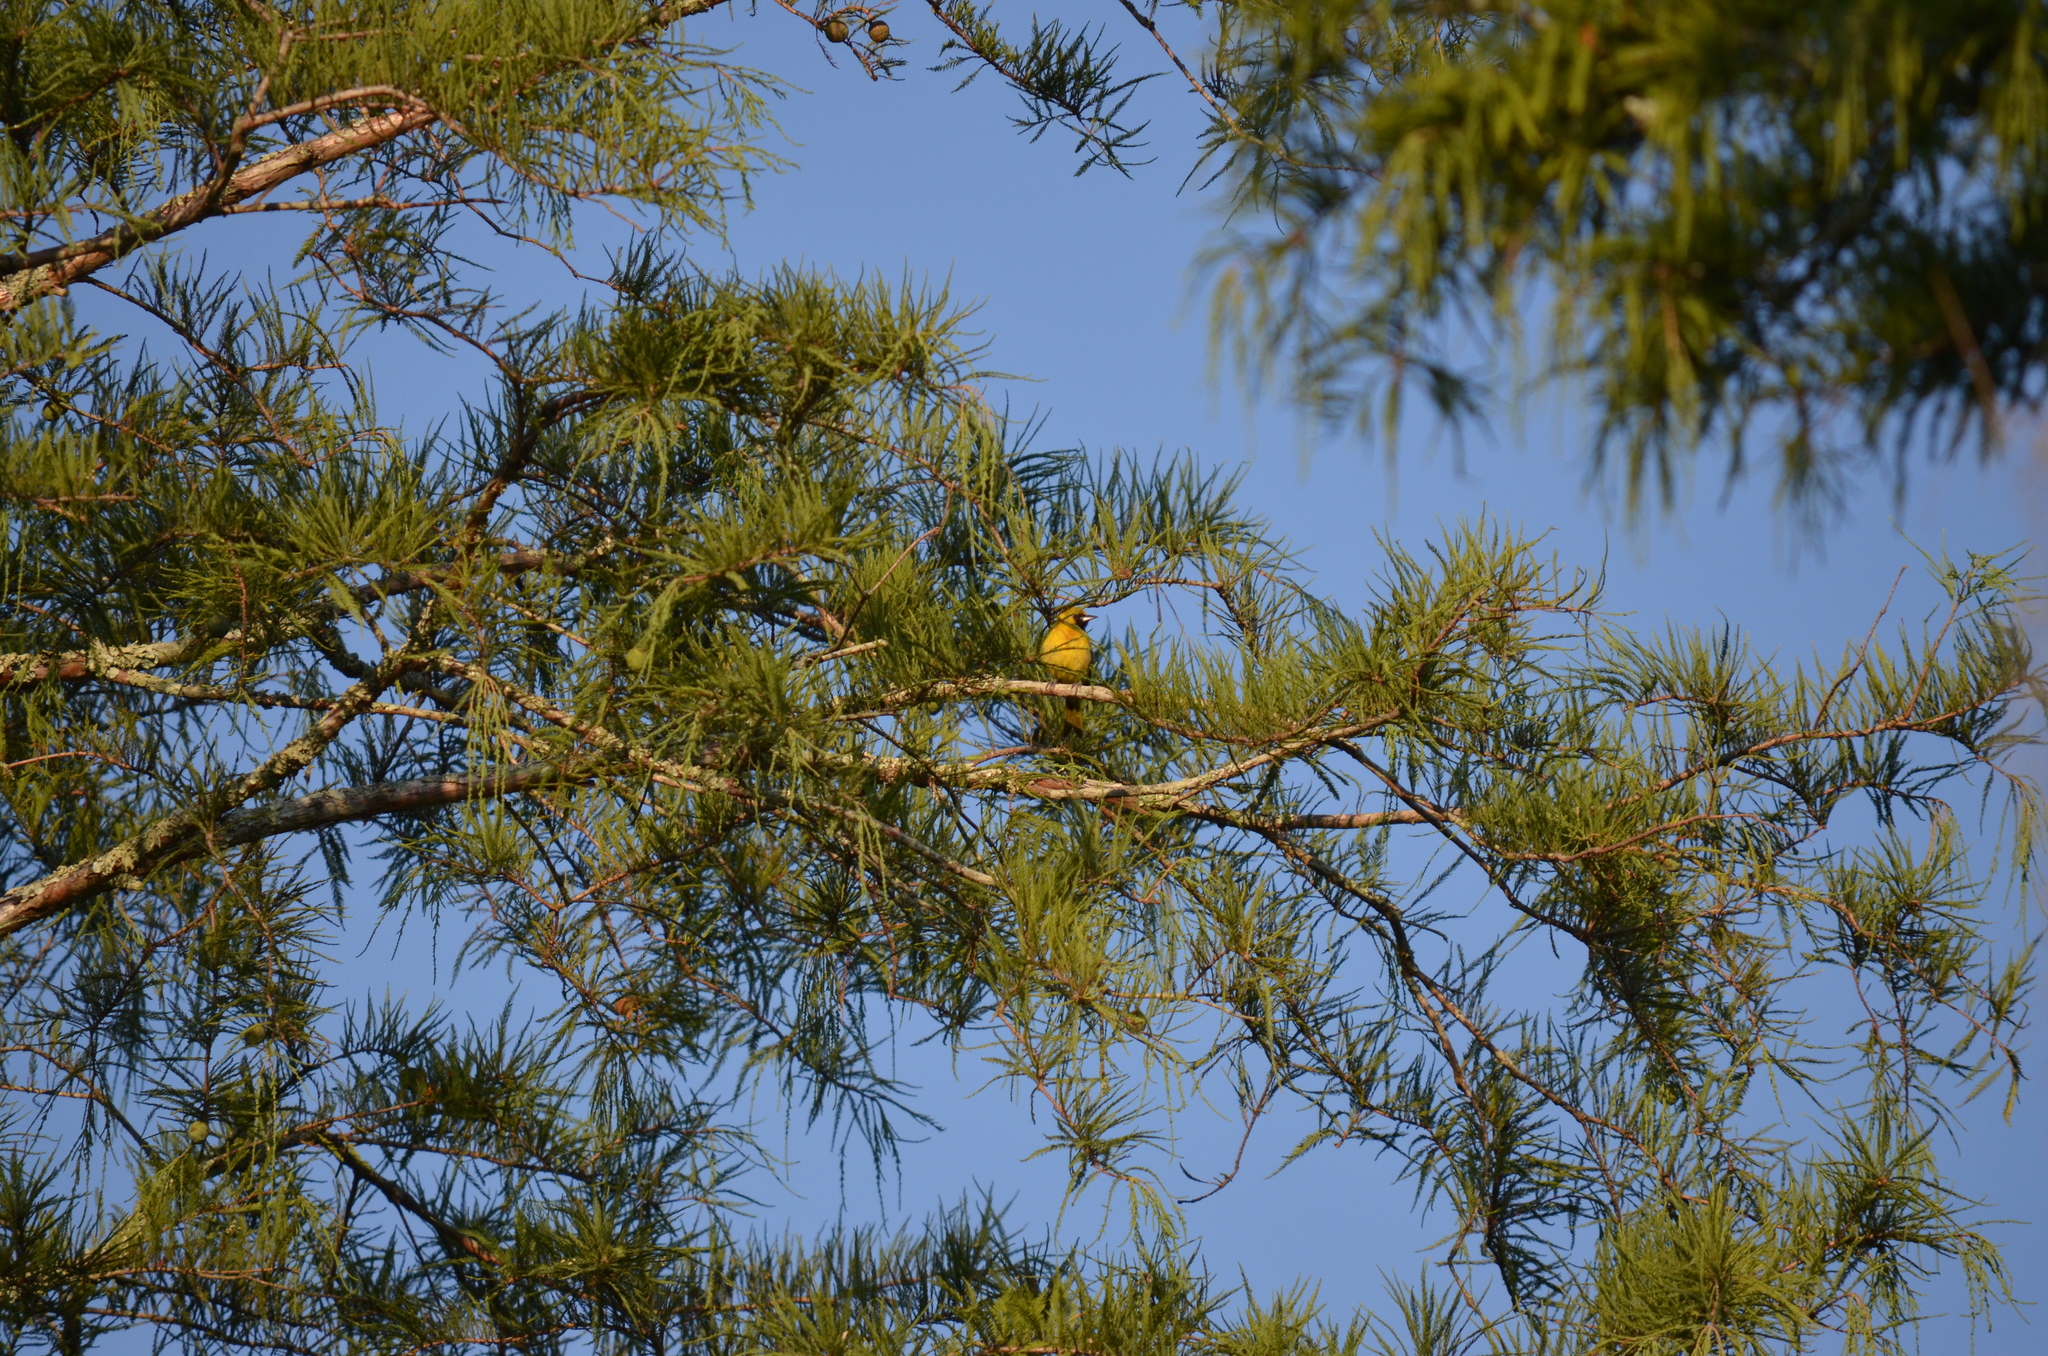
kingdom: Animalia
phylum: Chordata
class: Aves
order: Passeriformes
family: Icteridae
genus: Icterus
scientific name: Icterus spurius
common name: Orchard oriole
